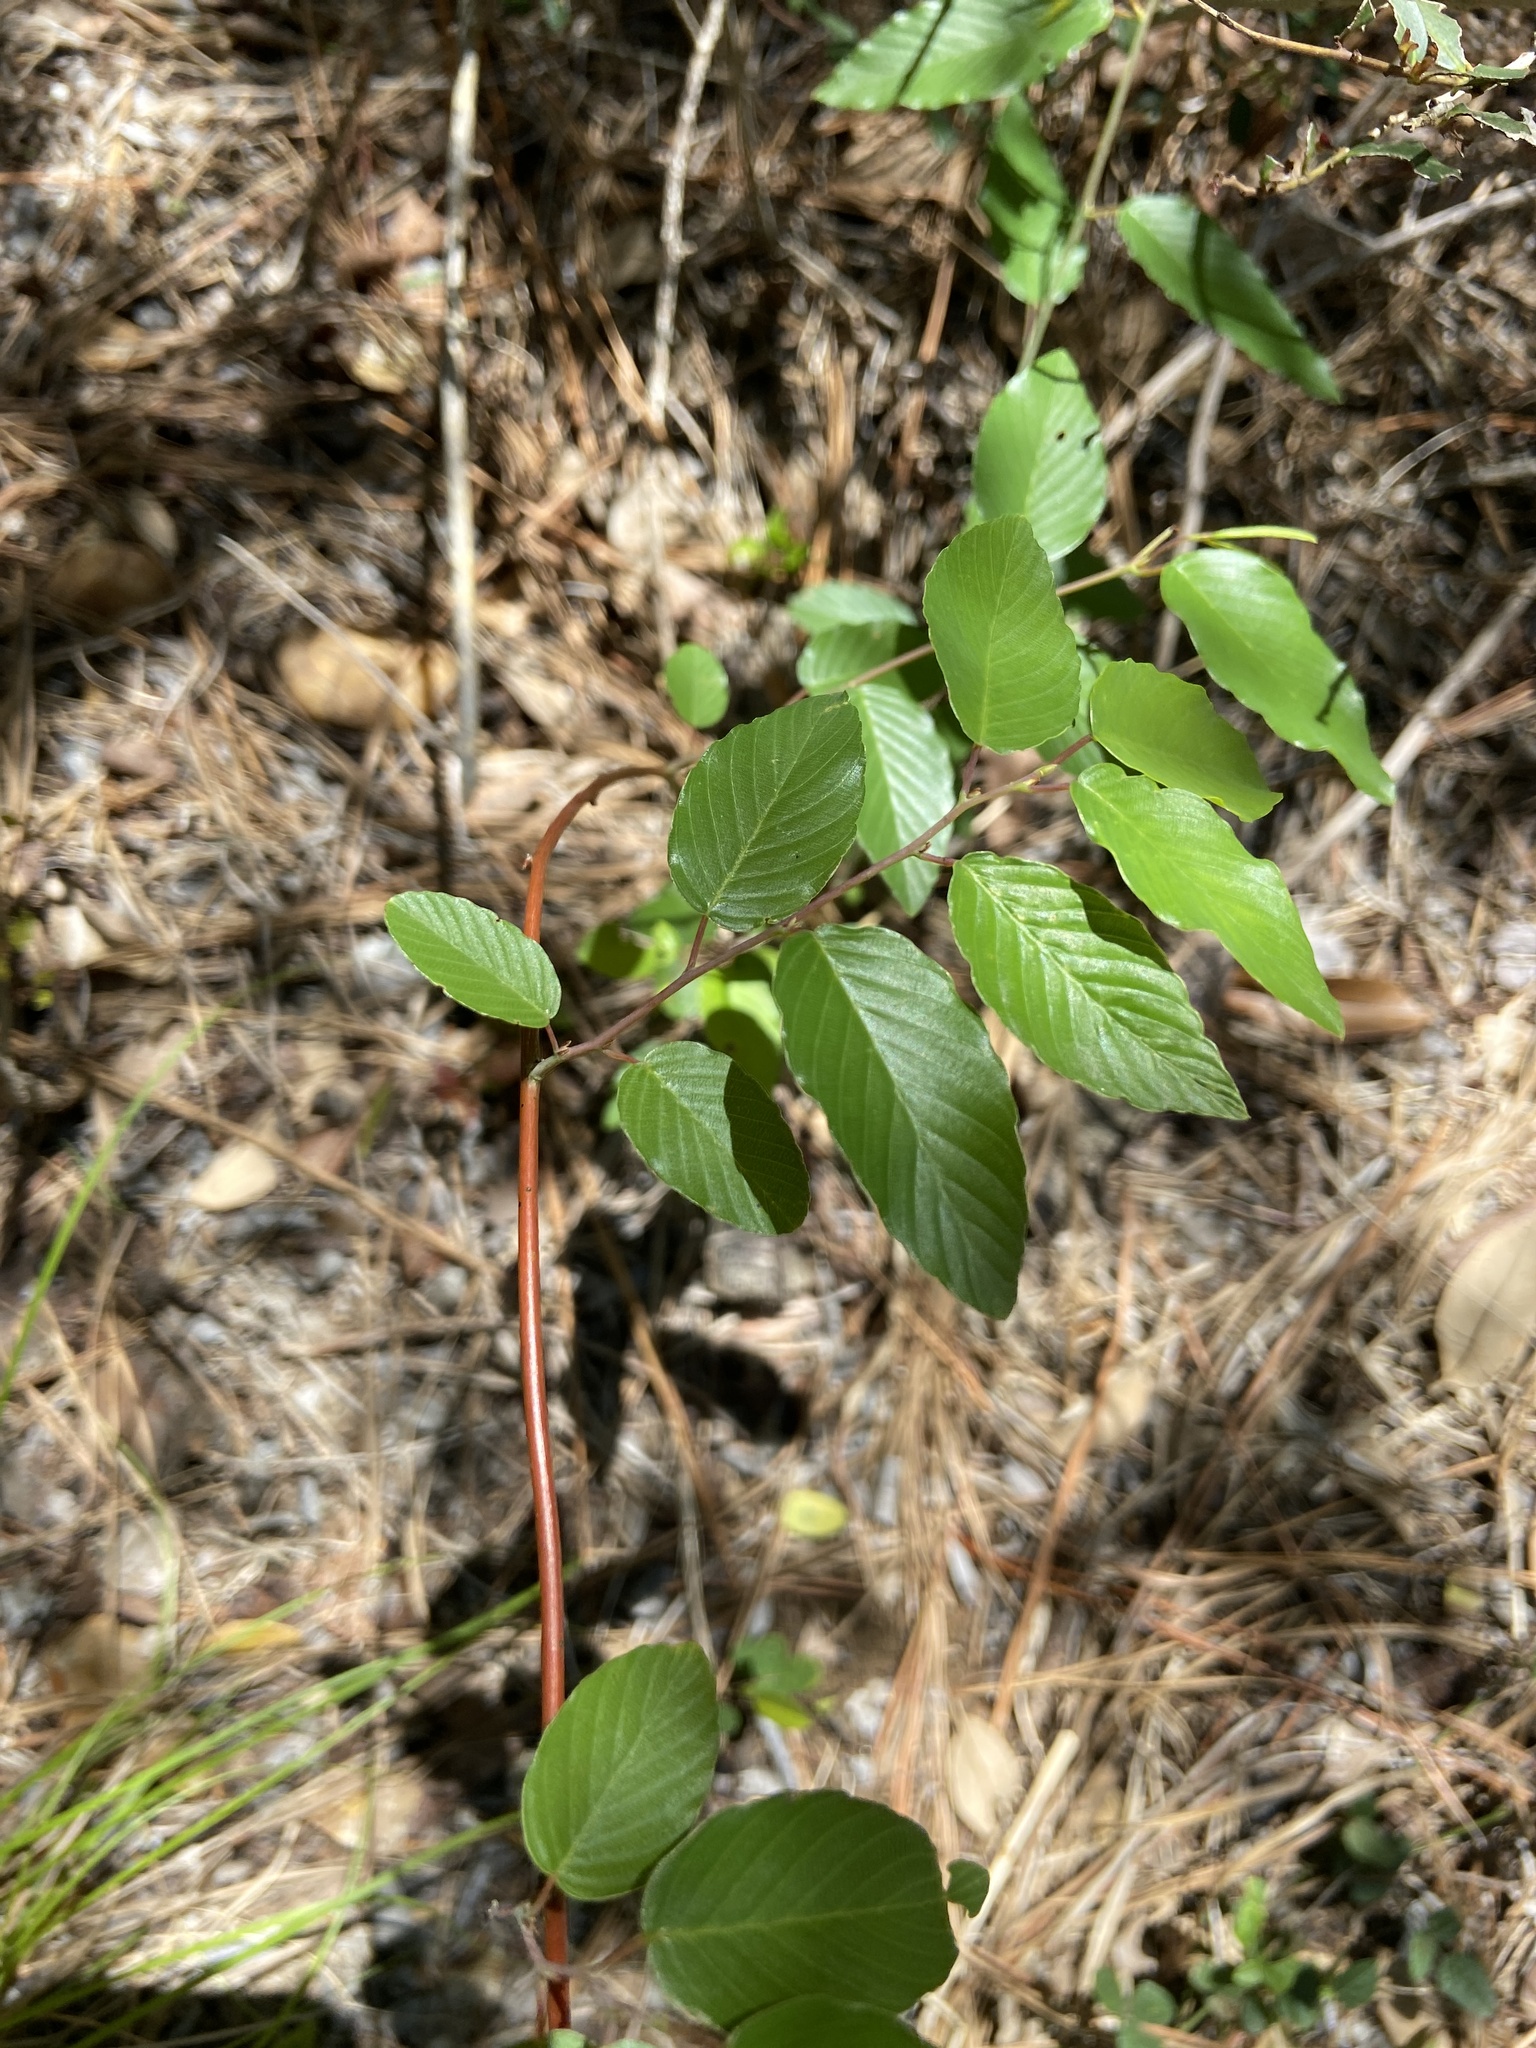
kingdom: Plantae
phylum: Tracheophyta
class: Magnoliopsida
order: Rosales
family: Rhamnaceae
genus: Berchemia
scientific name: Berchemia scandens
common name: Supplejack
